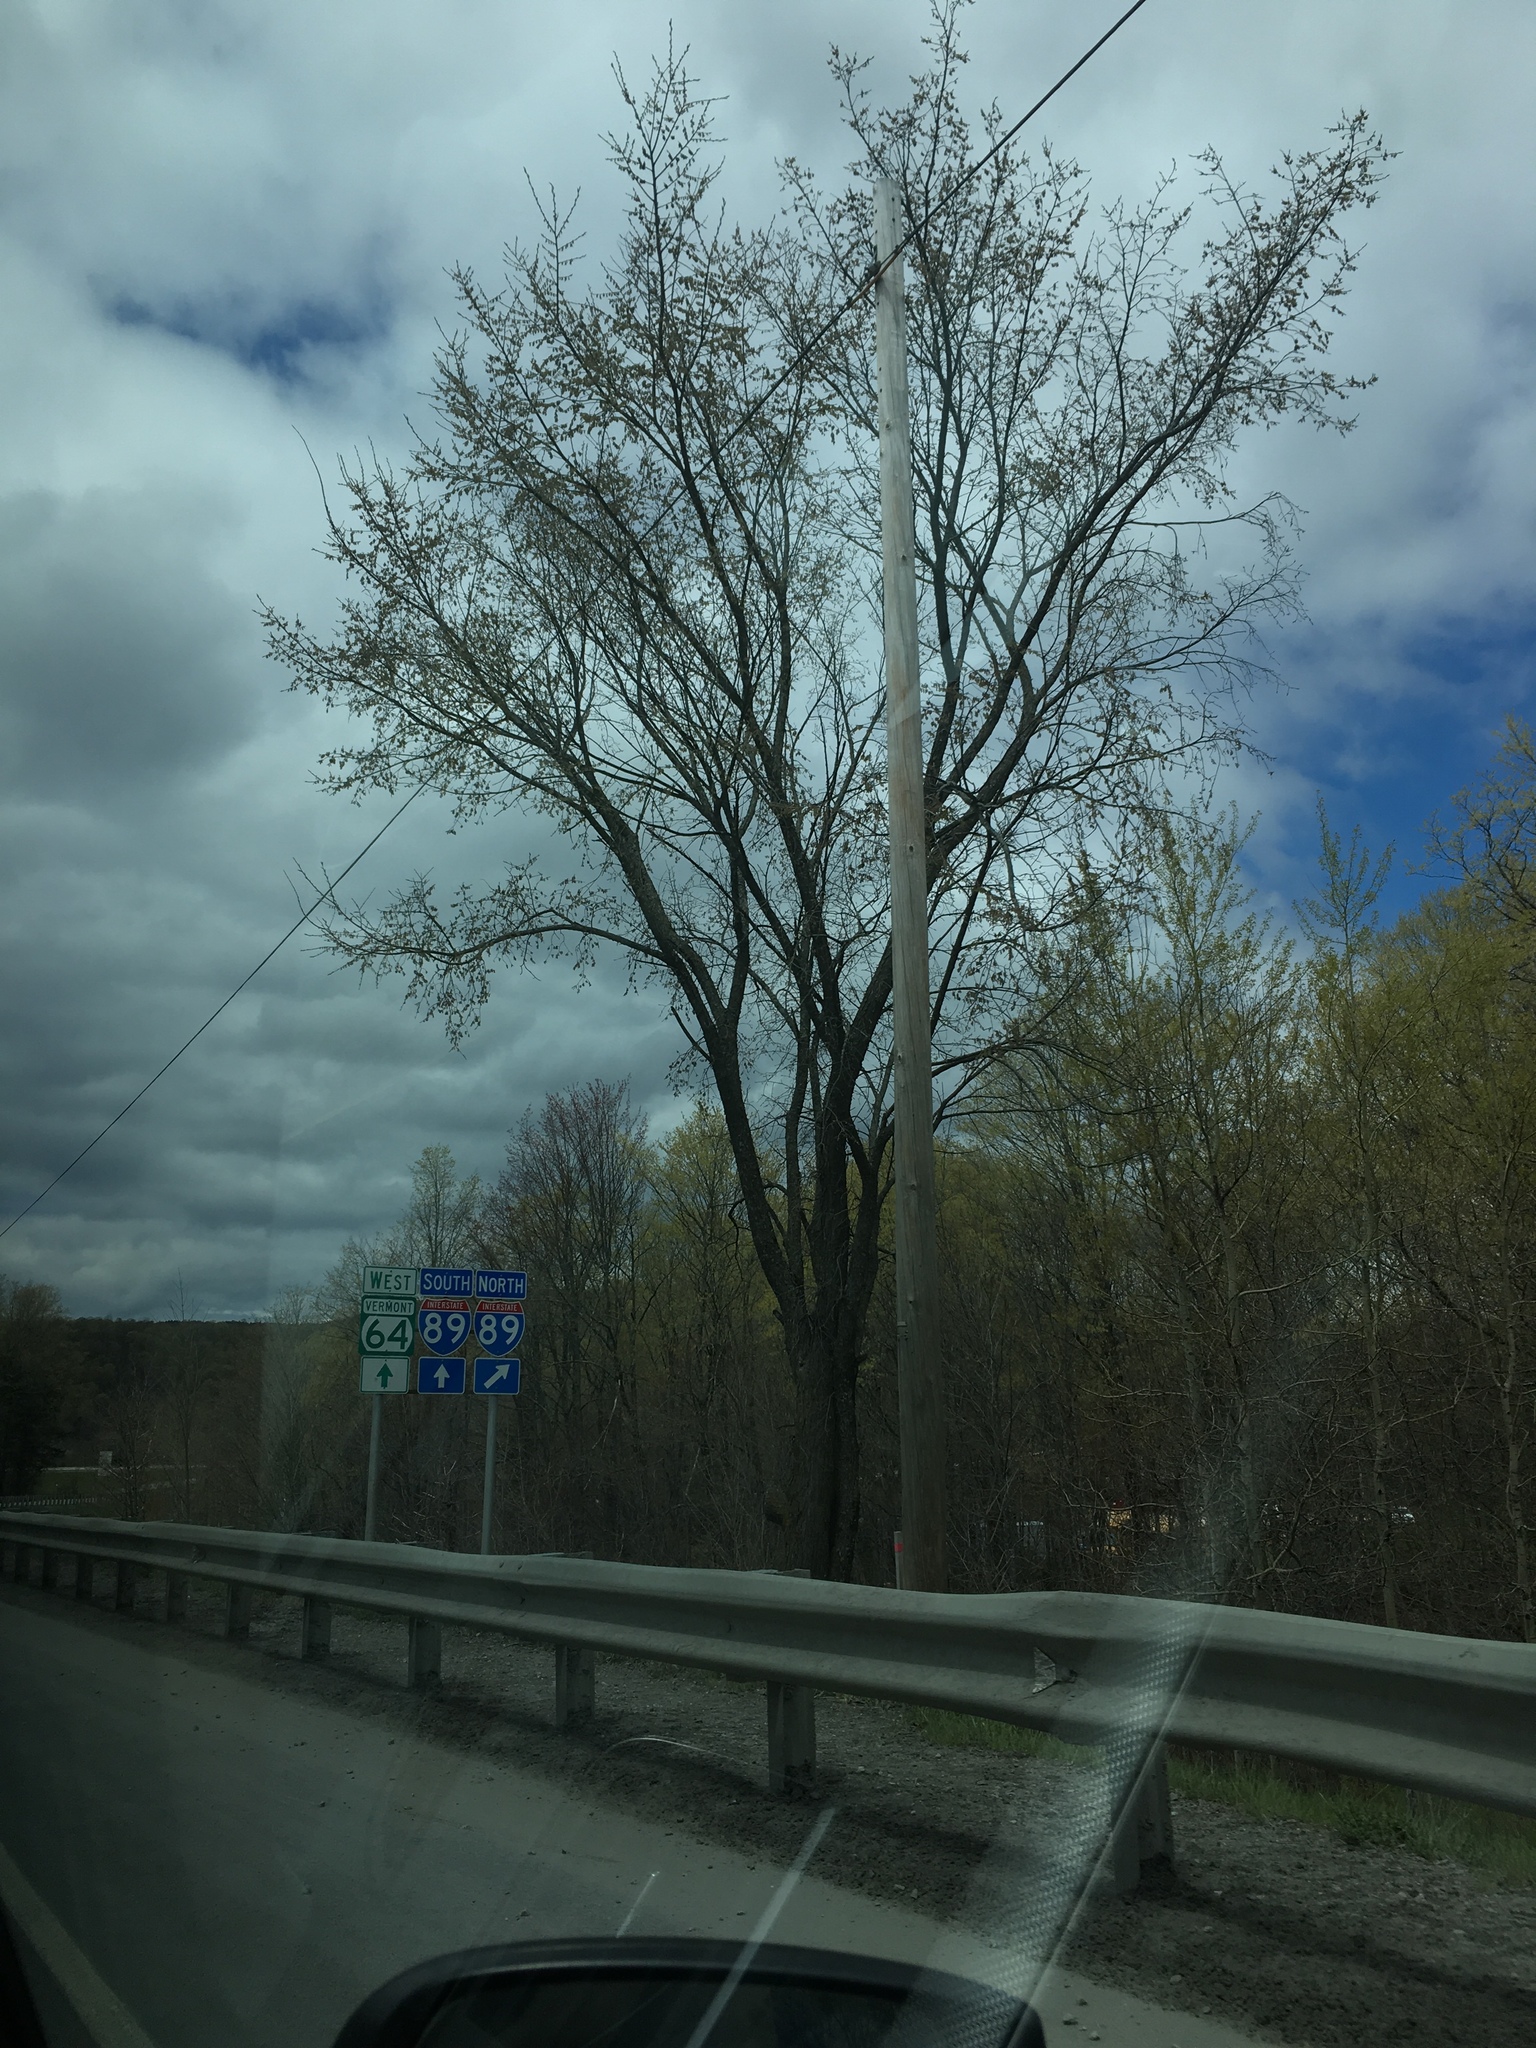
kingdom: Plantae
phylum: Tracheophyta
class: Magnoliopsida
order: Rosales
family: Ulmaceae
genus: Ulmus
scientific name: Ulmus americana
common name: American elm
